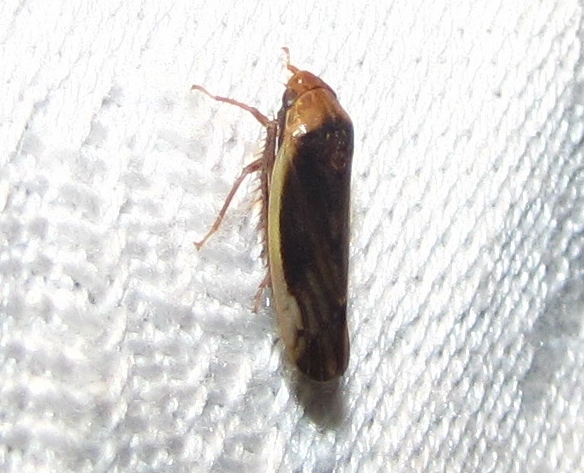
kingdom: Animalia
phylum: Arthropoda
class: Insecta
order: Hemiptera
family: Cicadellidae
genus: Ponana
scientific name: Ponana limbatipennis
